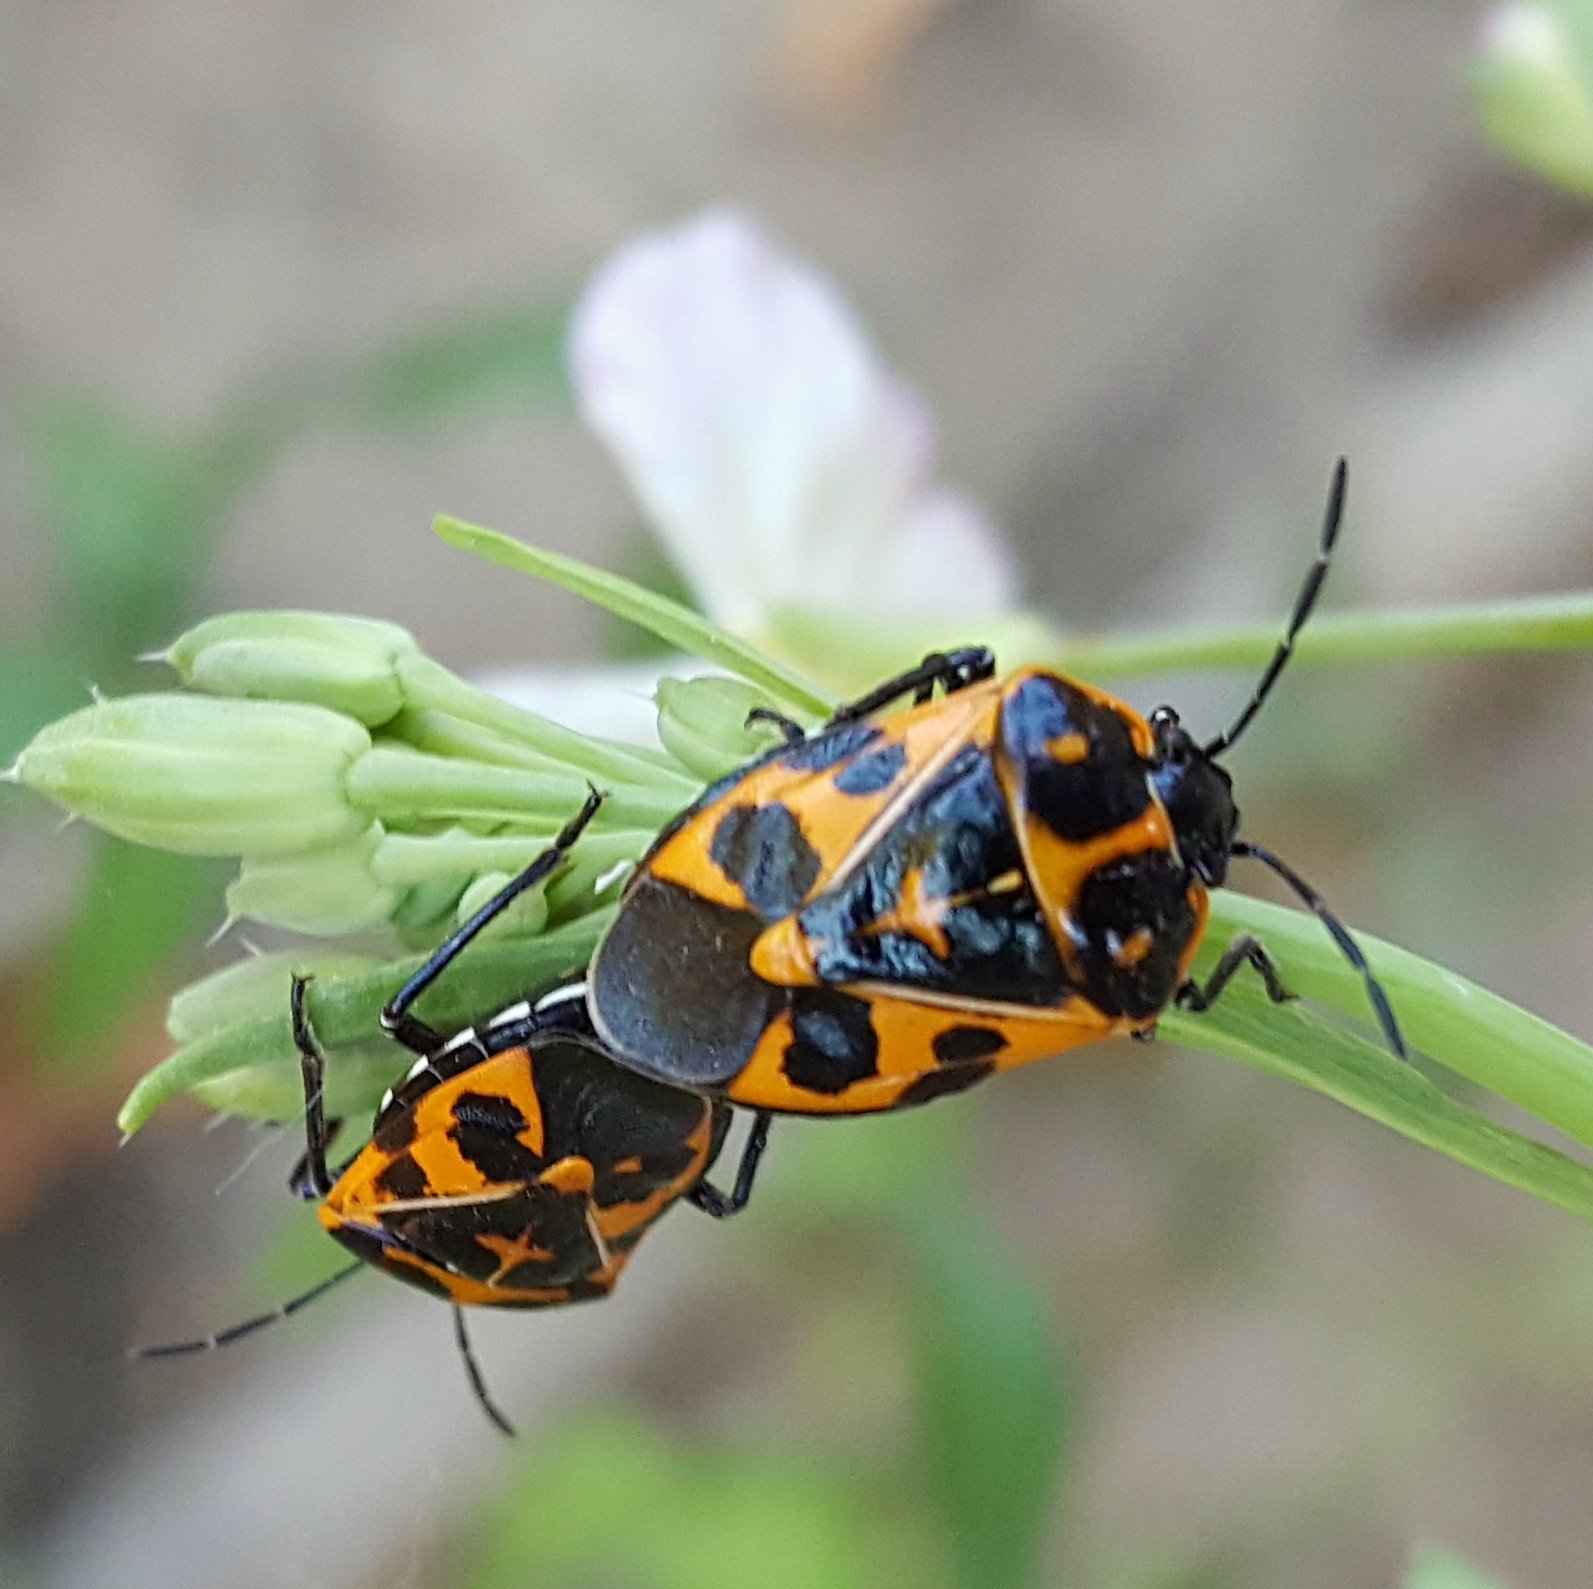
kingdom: Animalia
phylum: Arthropoda
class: Insecta
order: Hemiptera
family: Pentatomidae
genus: Murgantia
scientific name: Murgantia histrionica
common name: Harlequin bug
